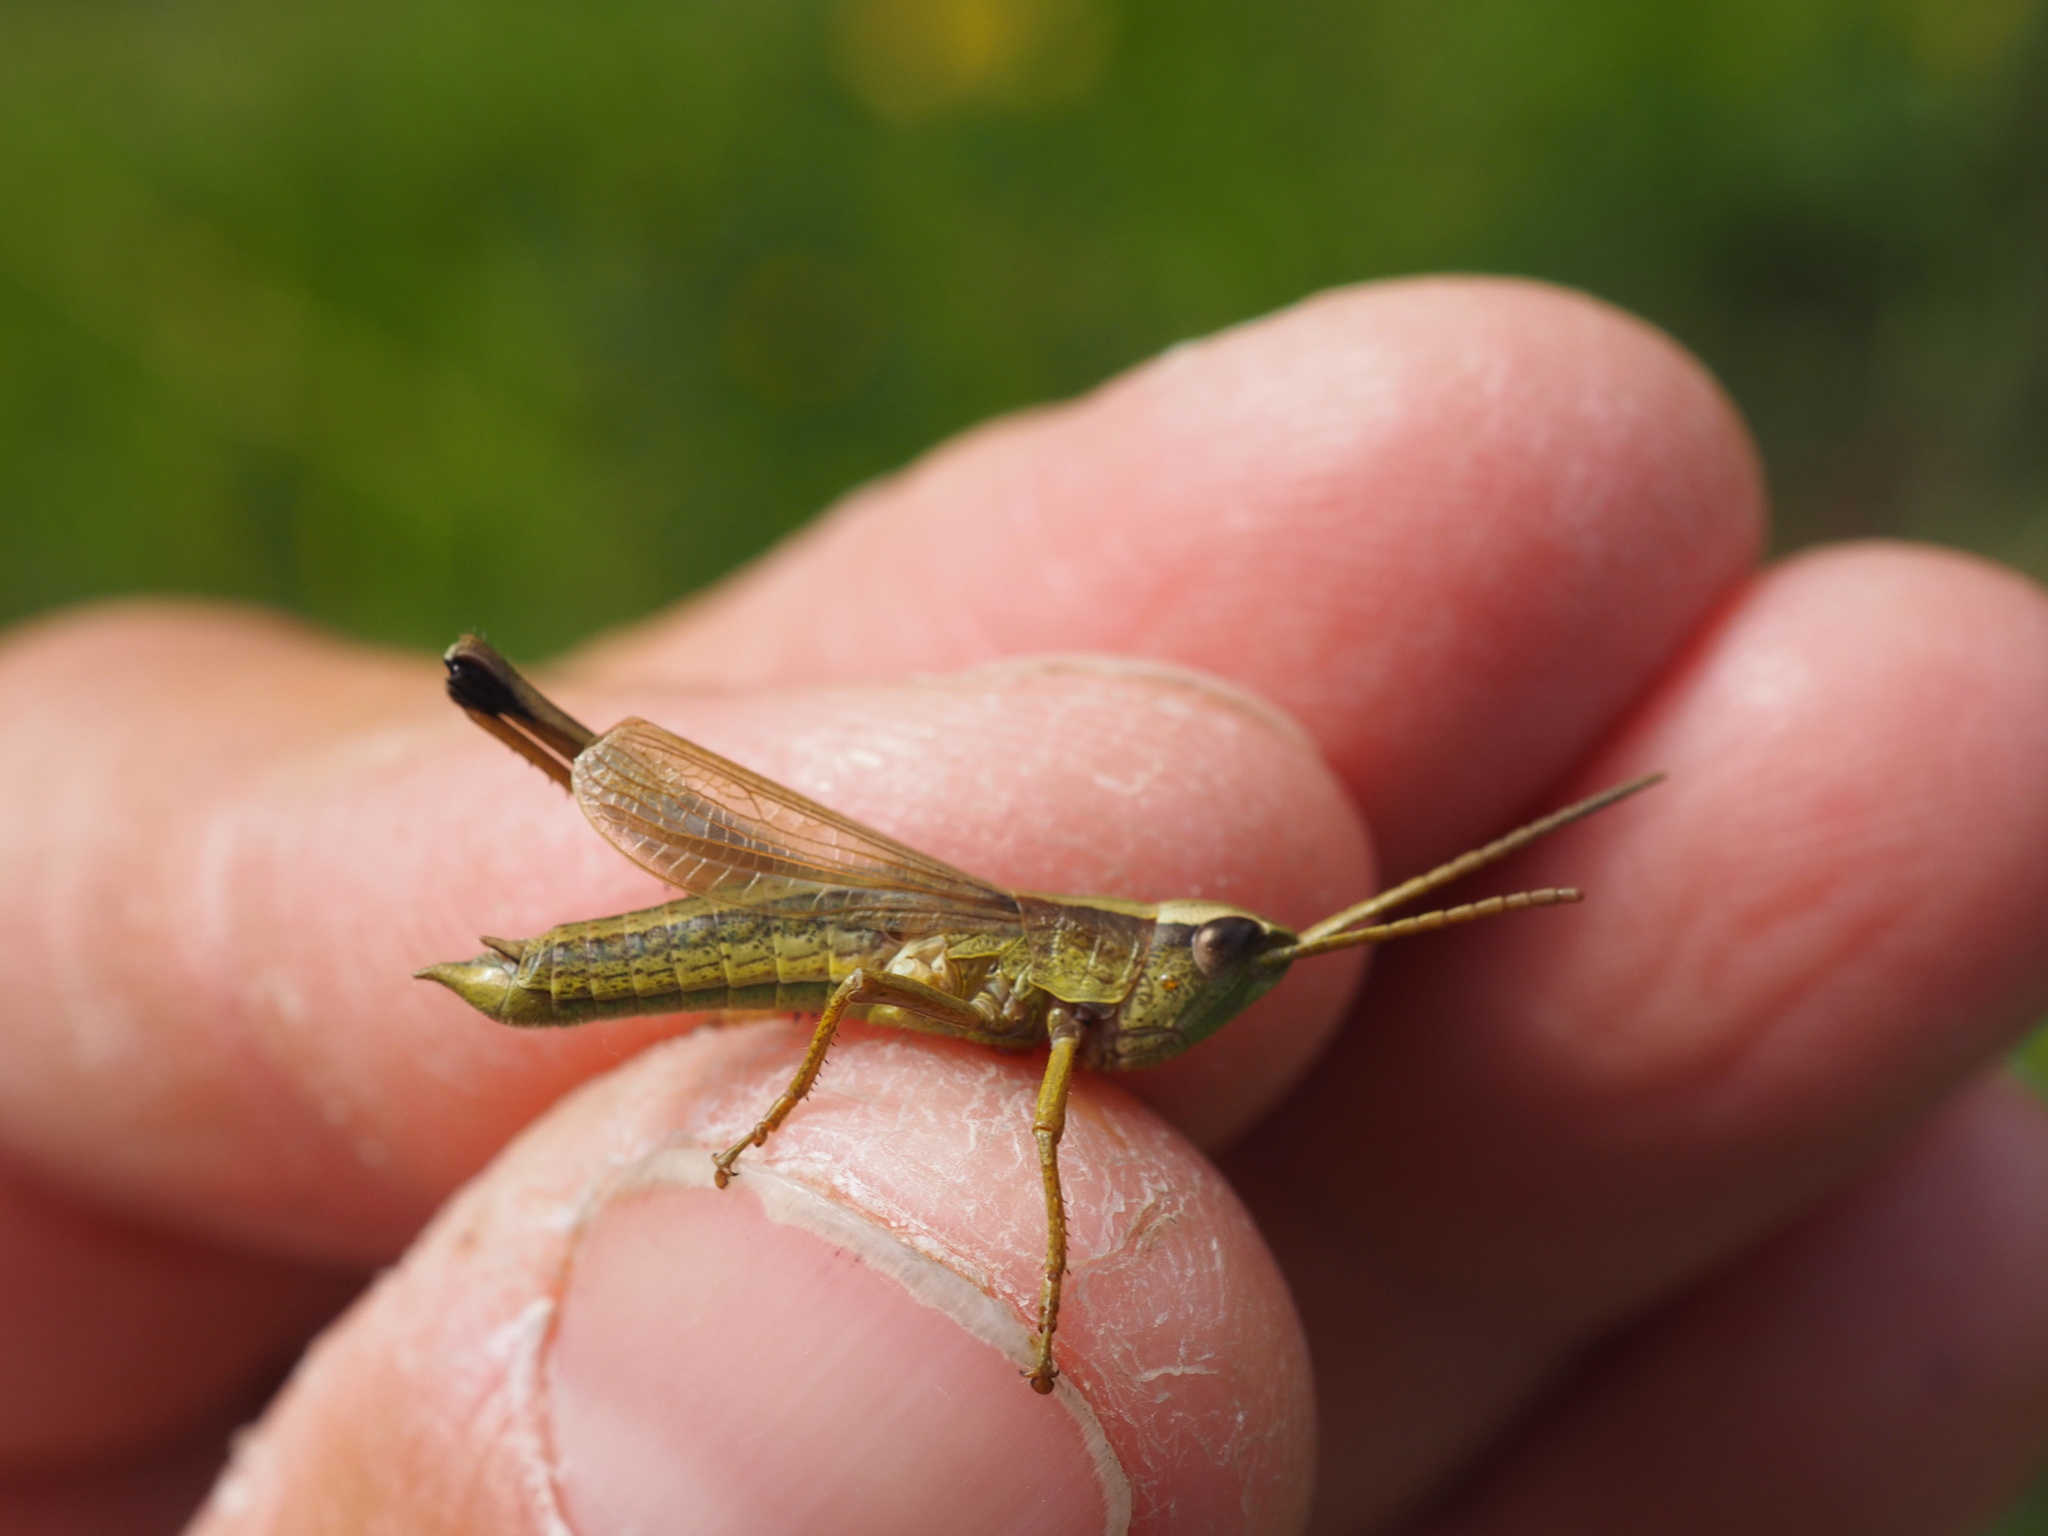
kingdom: Animalia
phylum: Arthropoda
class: Insecta
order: Orthoptera
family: Acrididae
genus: Chrysochraon
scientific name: Chrysochraon dispar
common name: Large gold grasshopper
